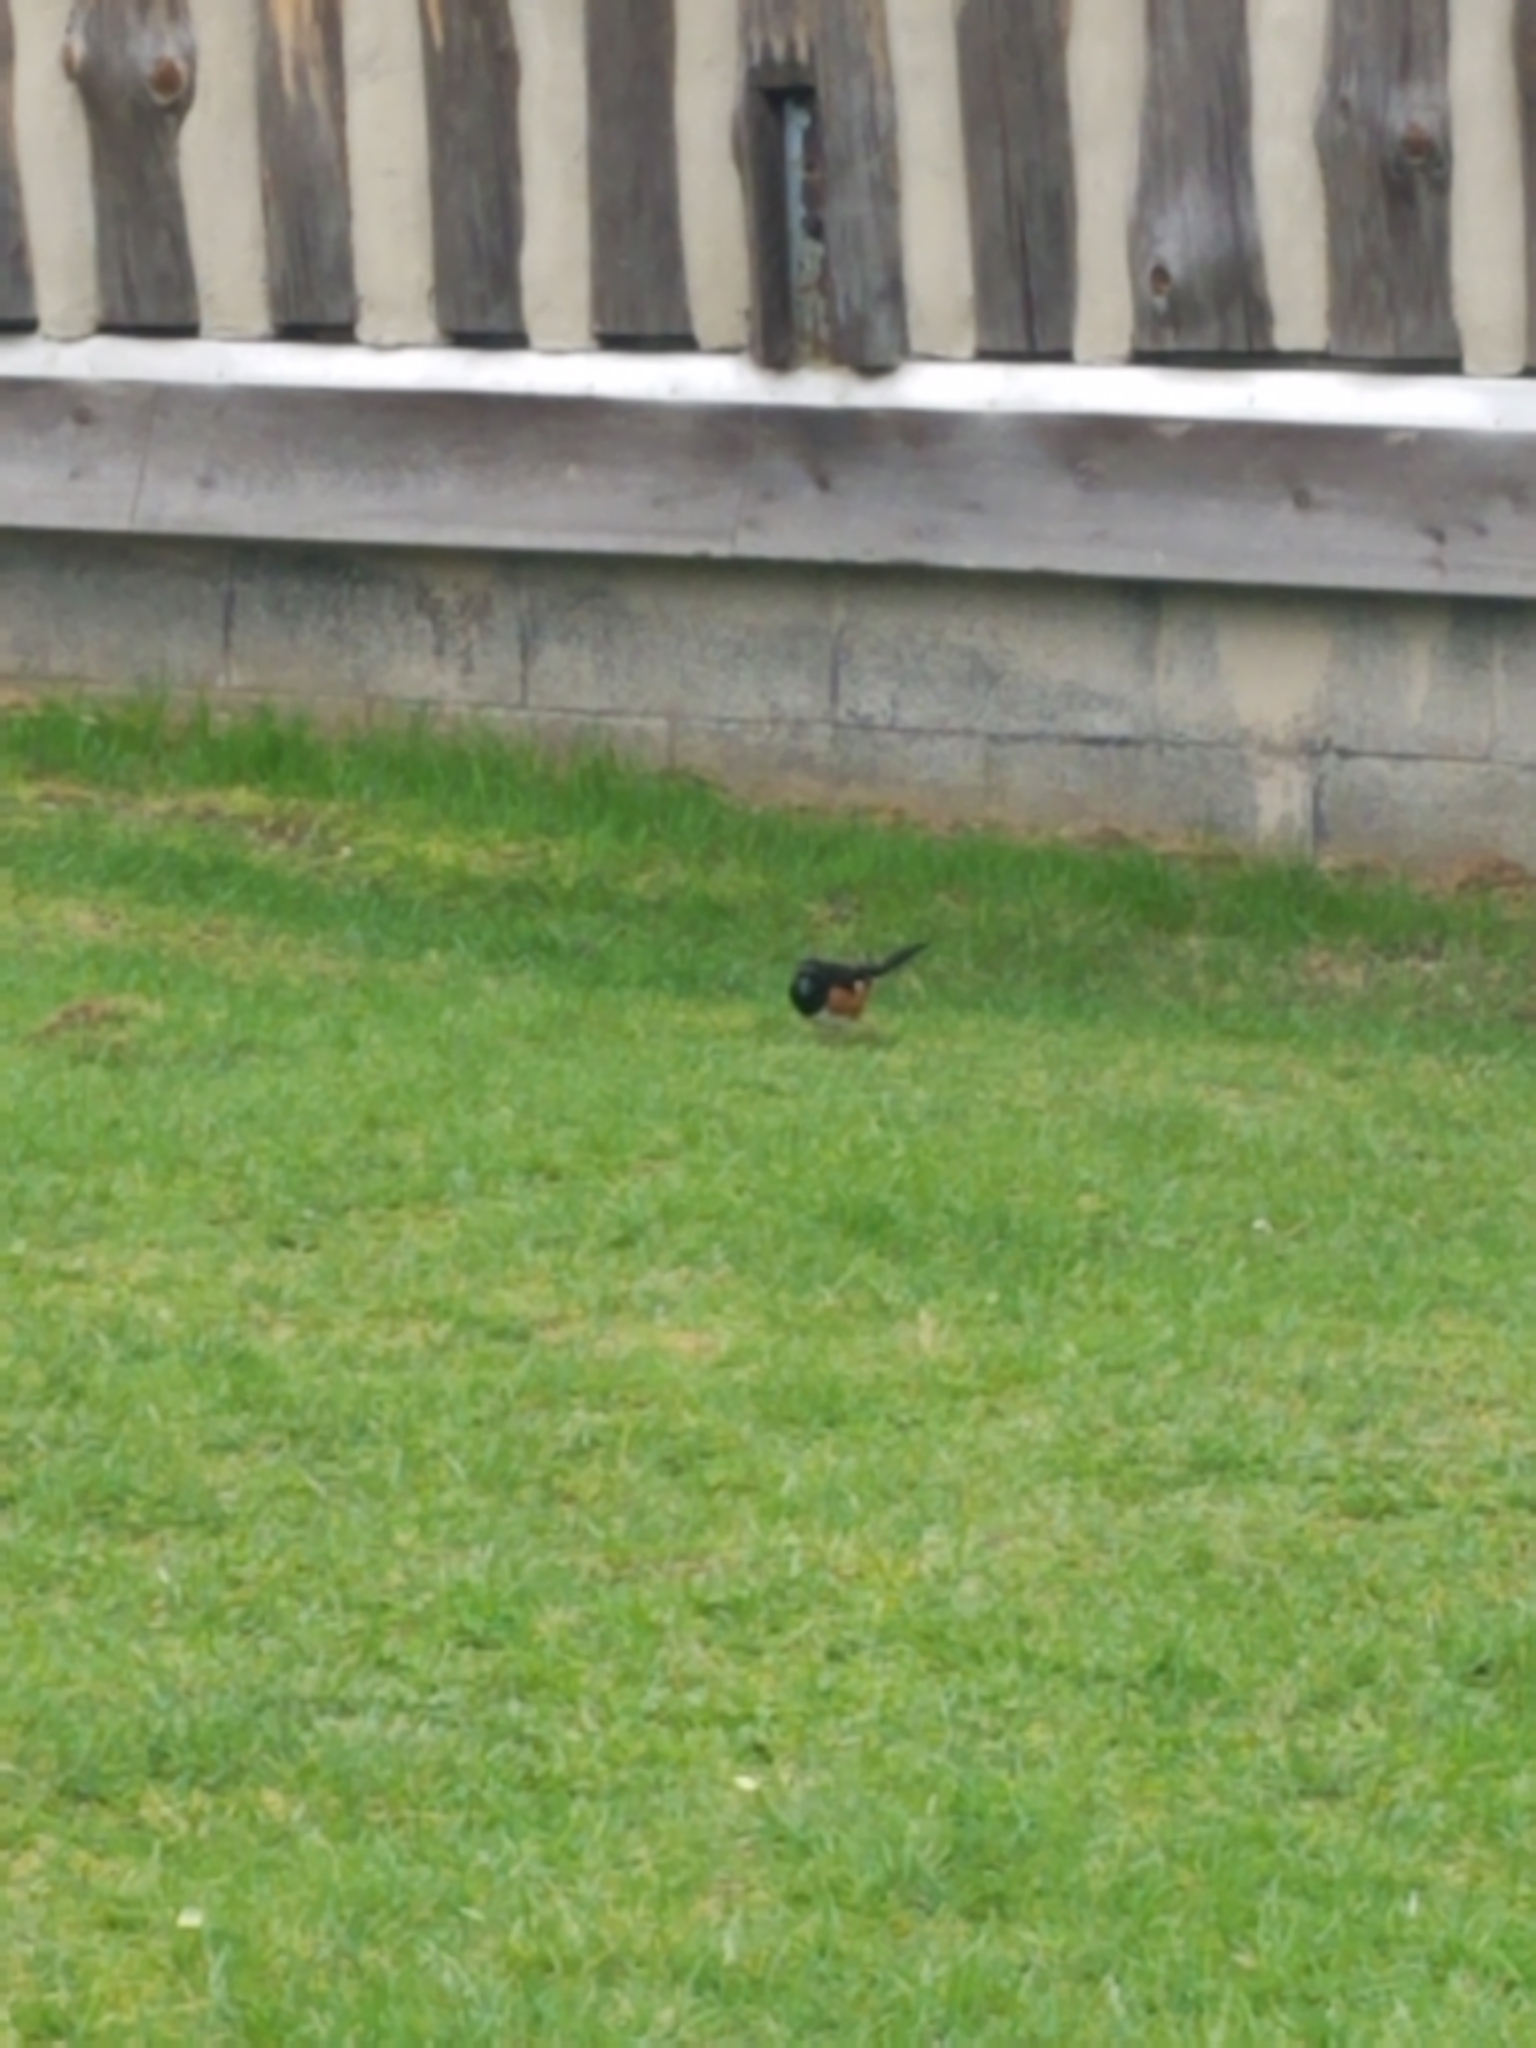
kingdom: Animalia
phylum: Chordata
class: Aves
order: Passeriformes
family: Passerellidae
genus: Pipilo
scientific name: Pipilo erythrophthalmus
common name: Eastern towhee
